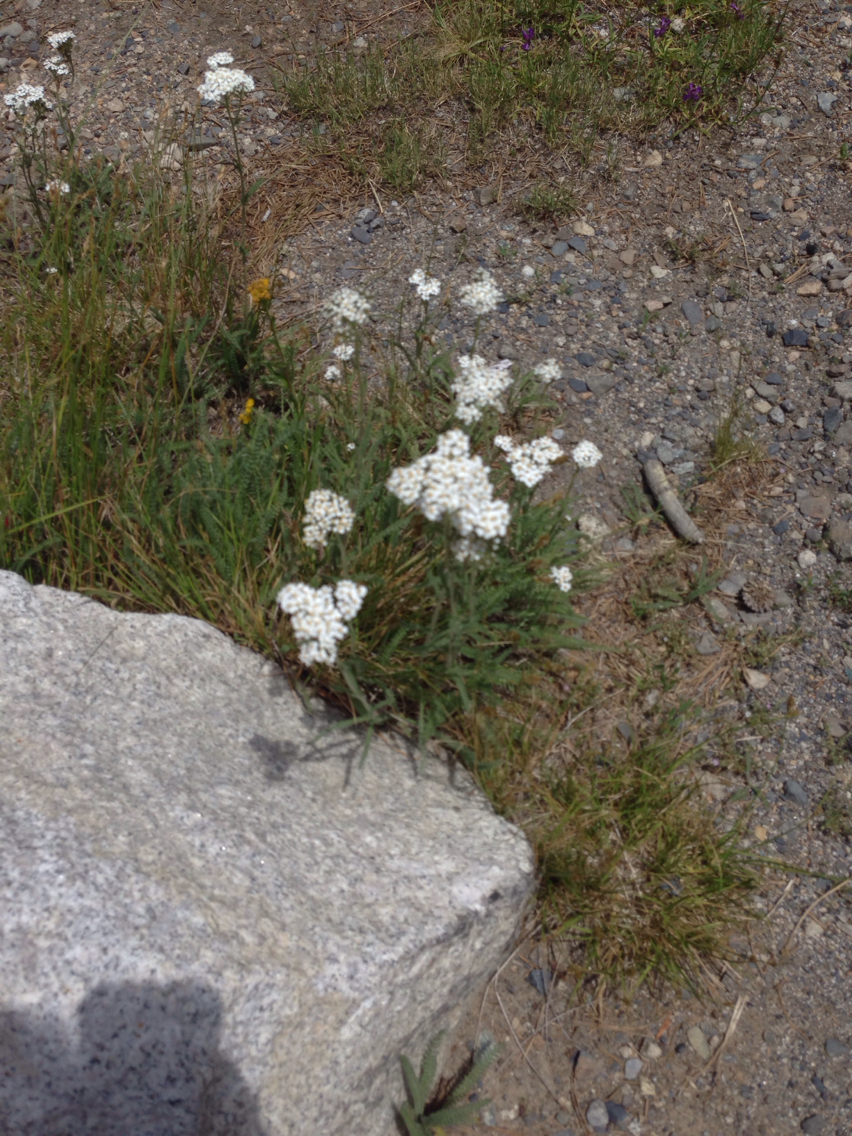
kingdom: Plantae
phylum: Tracheophyta
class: Magnoliopsida
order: Asterales
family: Asteraceae
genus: Achillea
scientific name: Achillea millefolium
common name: Yarrow
